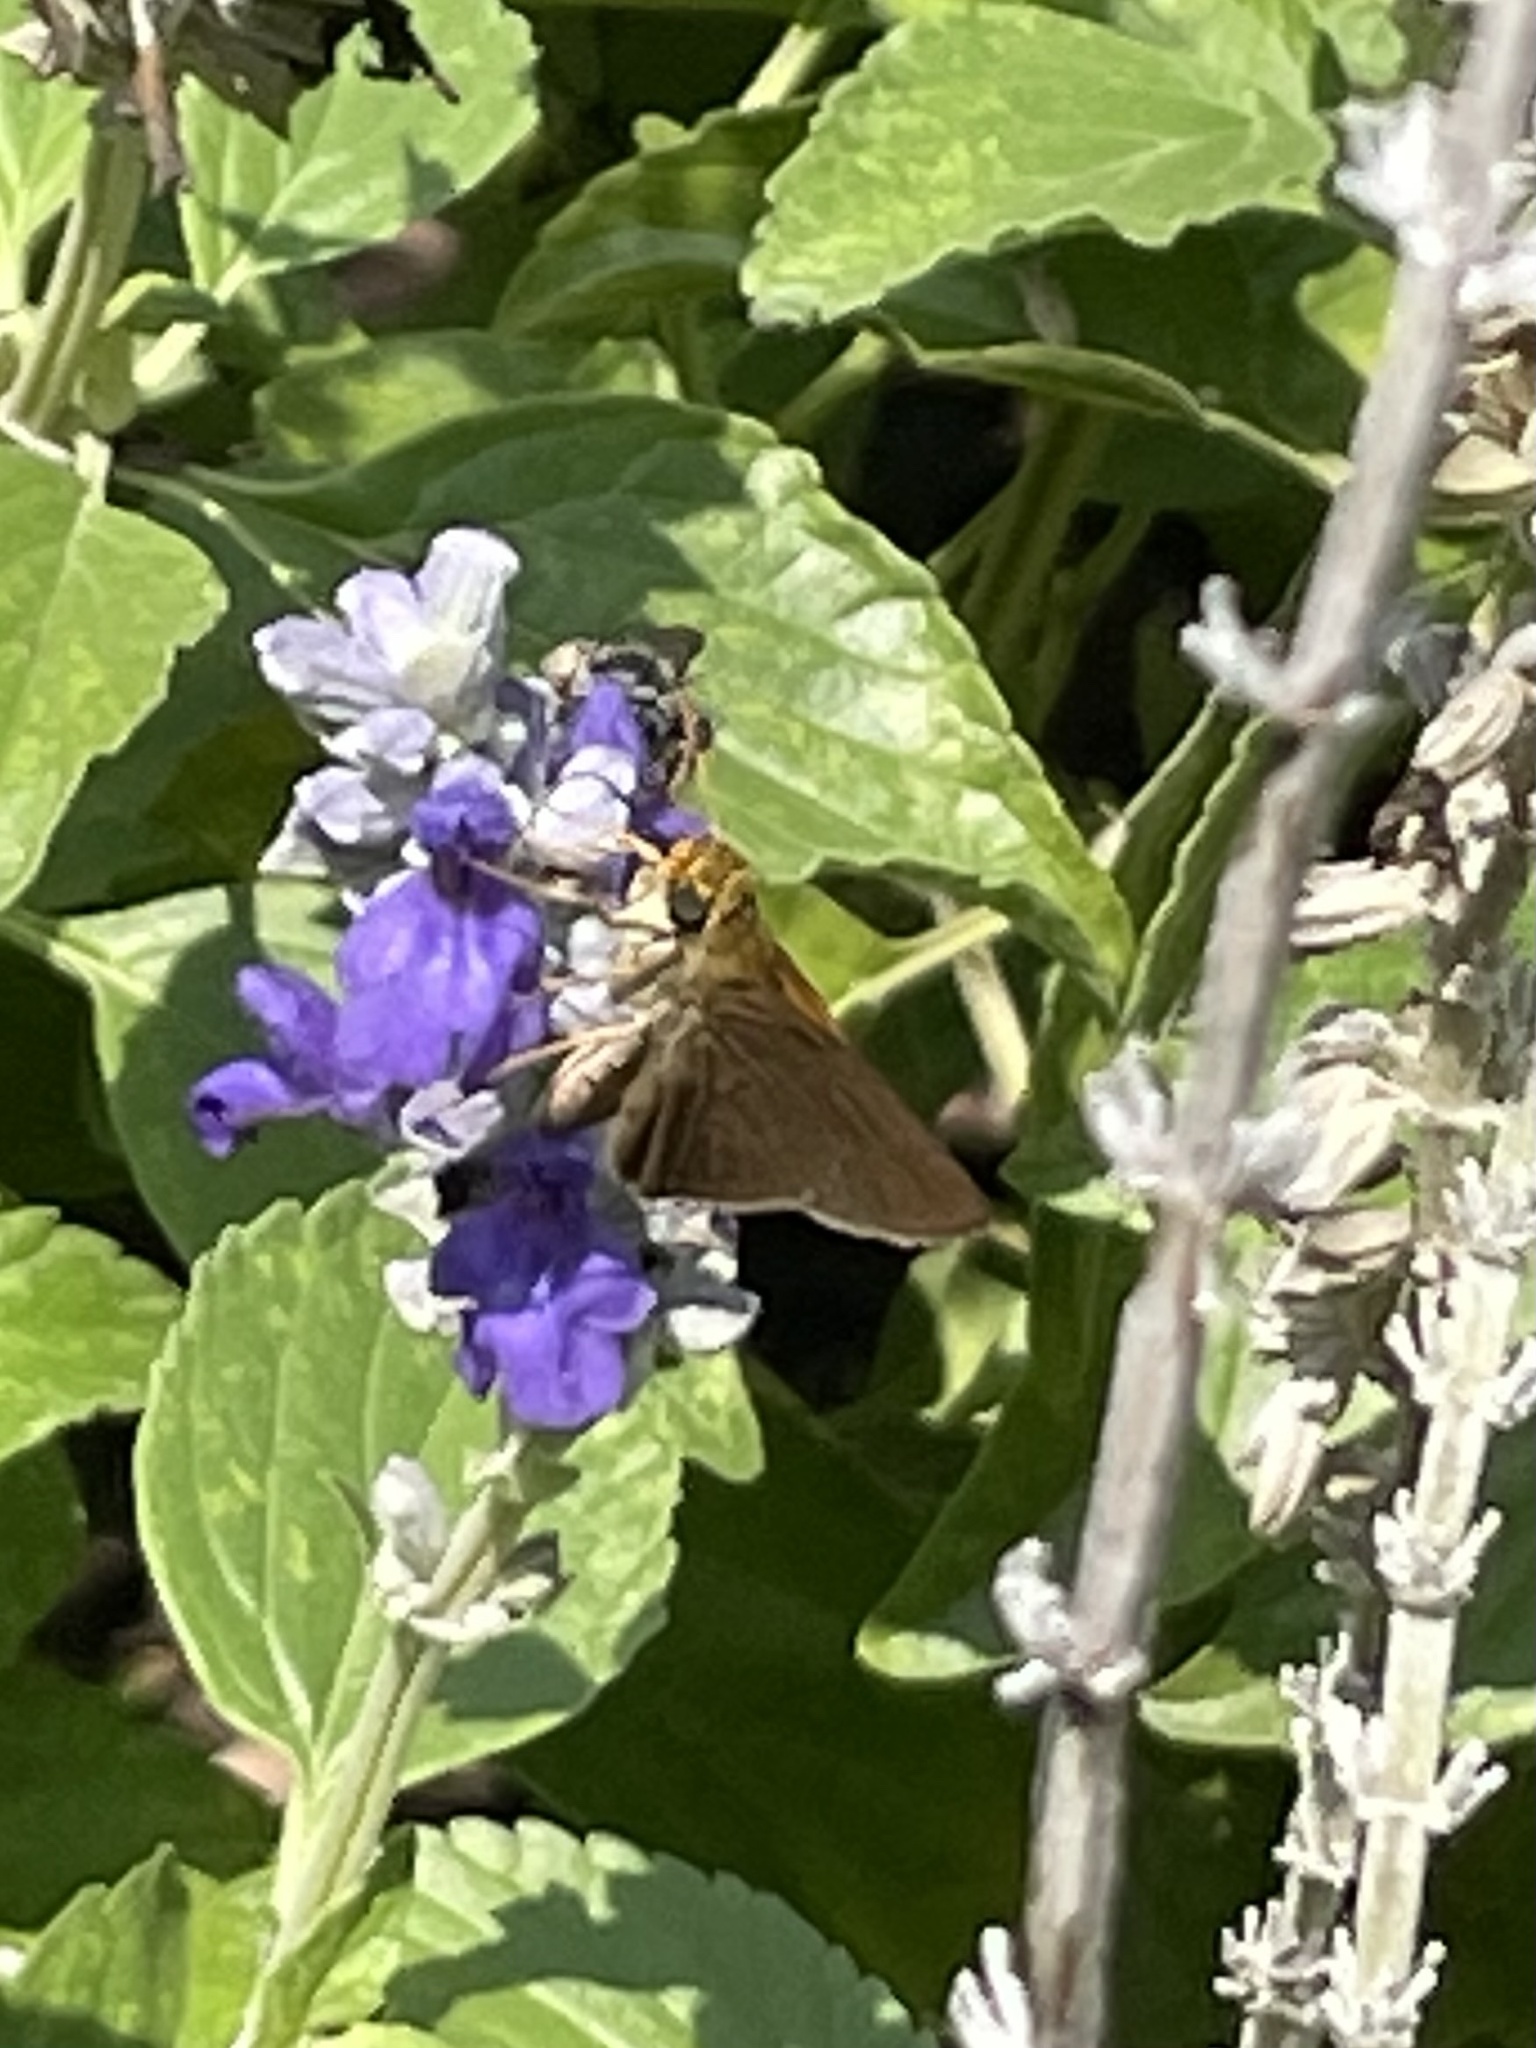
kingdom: Animalia
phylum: Arthropoda
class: Insecta
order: Lepidoptera
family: Hesperiidae
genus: Euphyes
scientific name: Euphyes vestris
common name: Dun skipper
